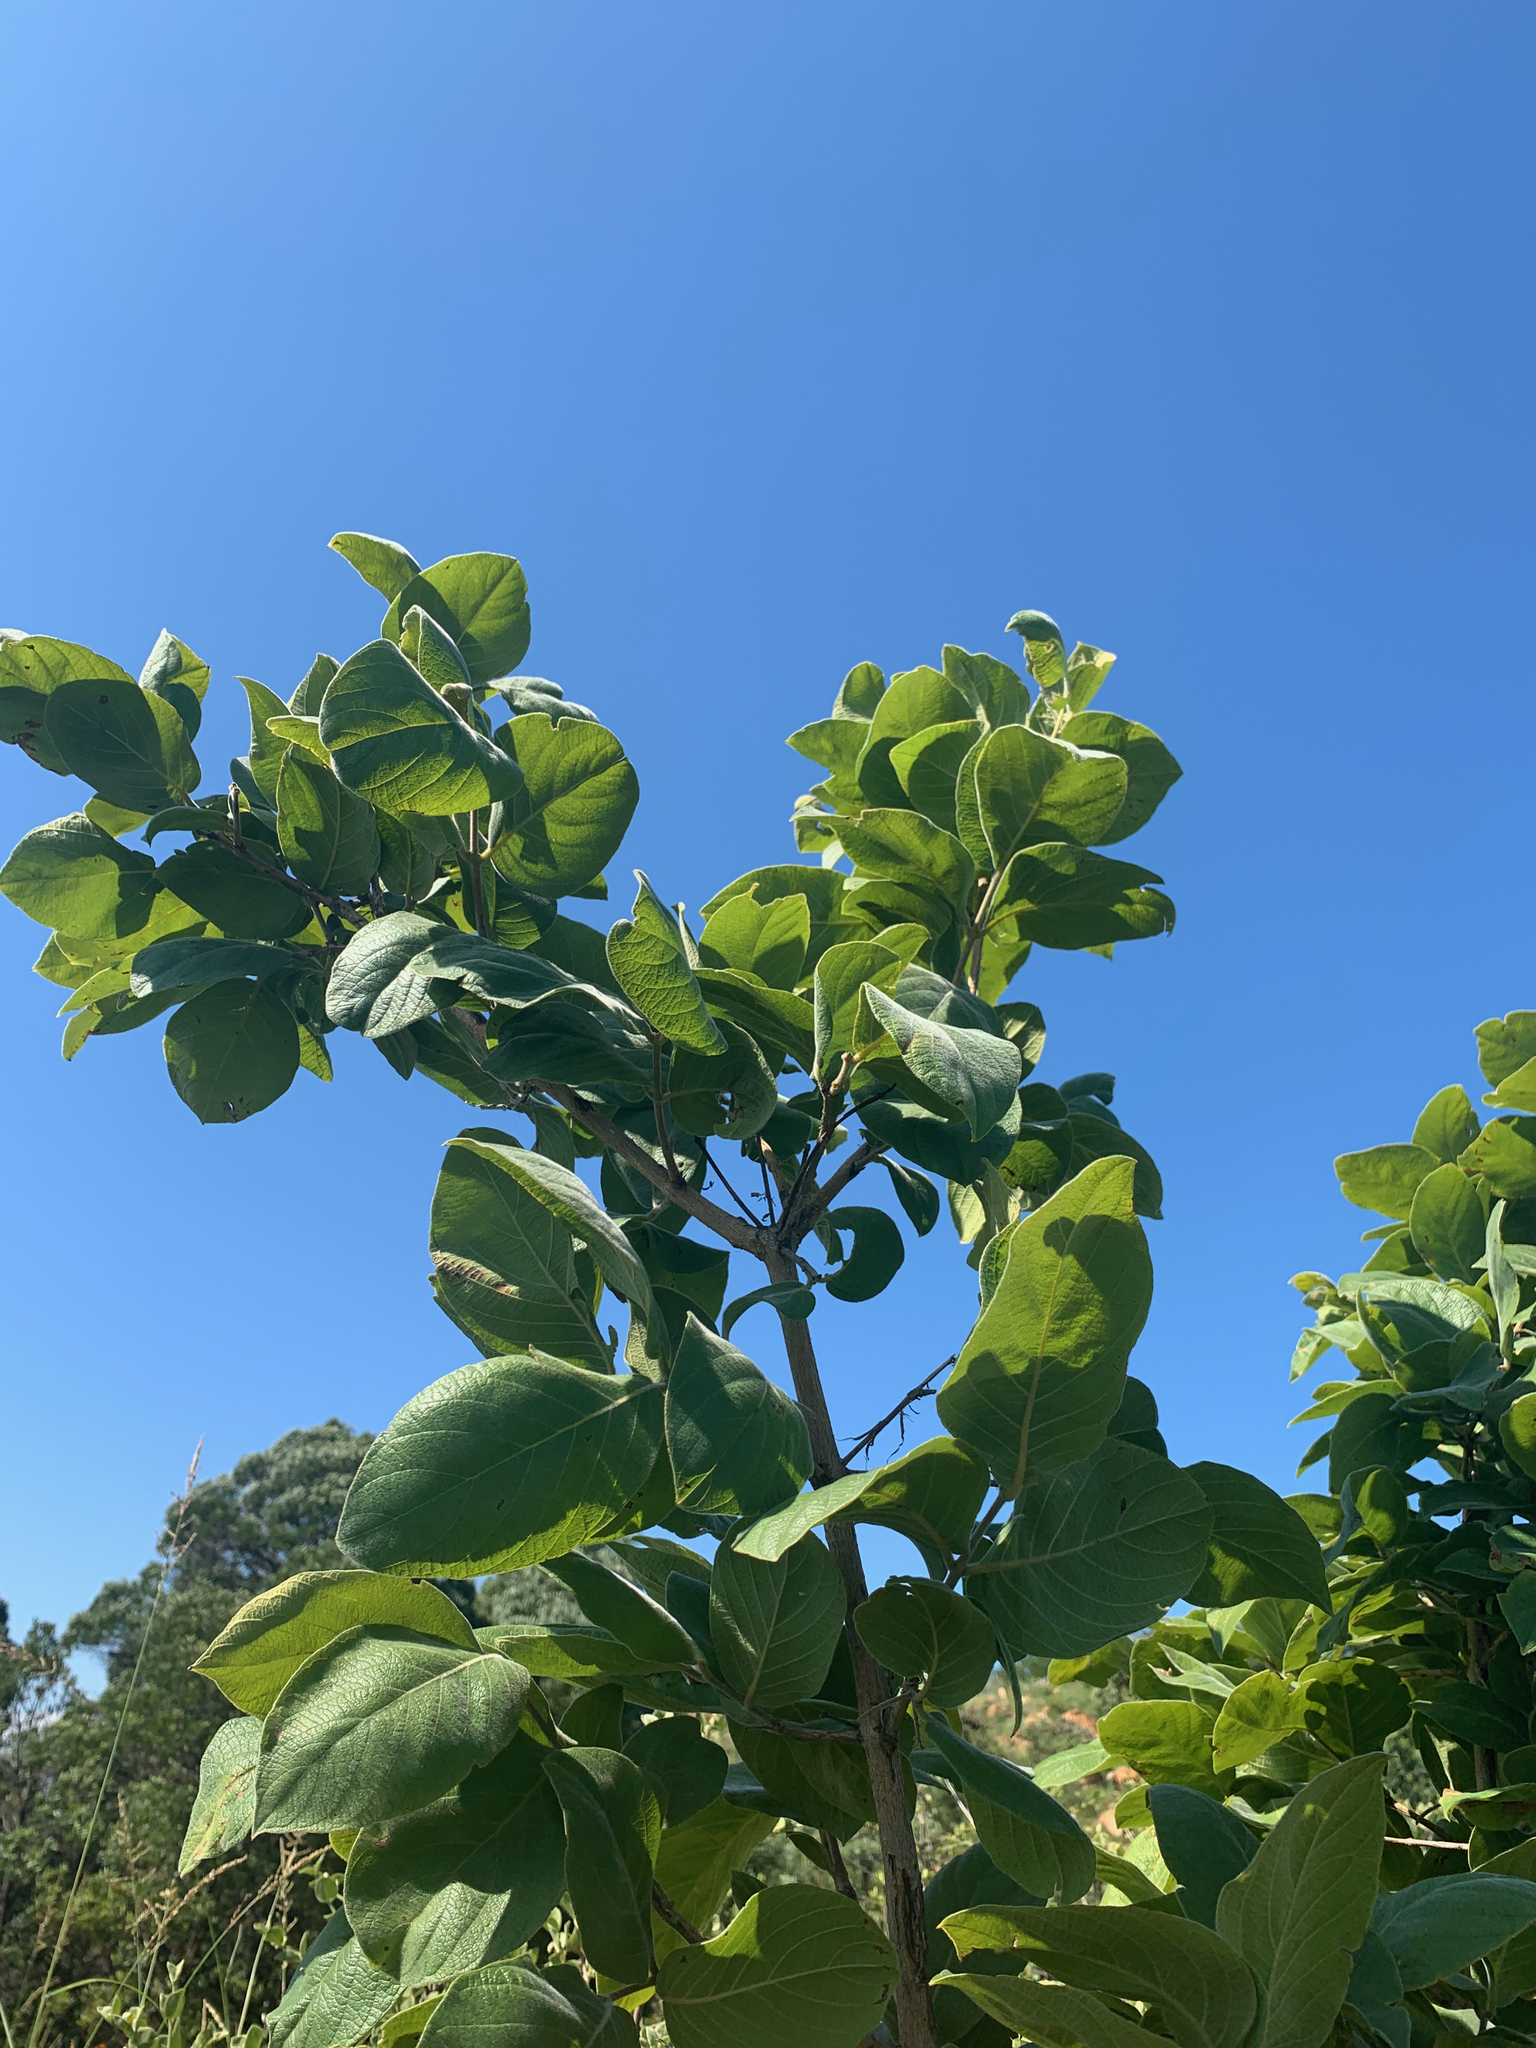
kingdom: Plantae
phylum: Tracheophyta
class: Magnoliopsida
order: Gentianales
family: Rubiaceae
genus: Vangueria
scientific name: Vangueria infausta
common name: Medlar
